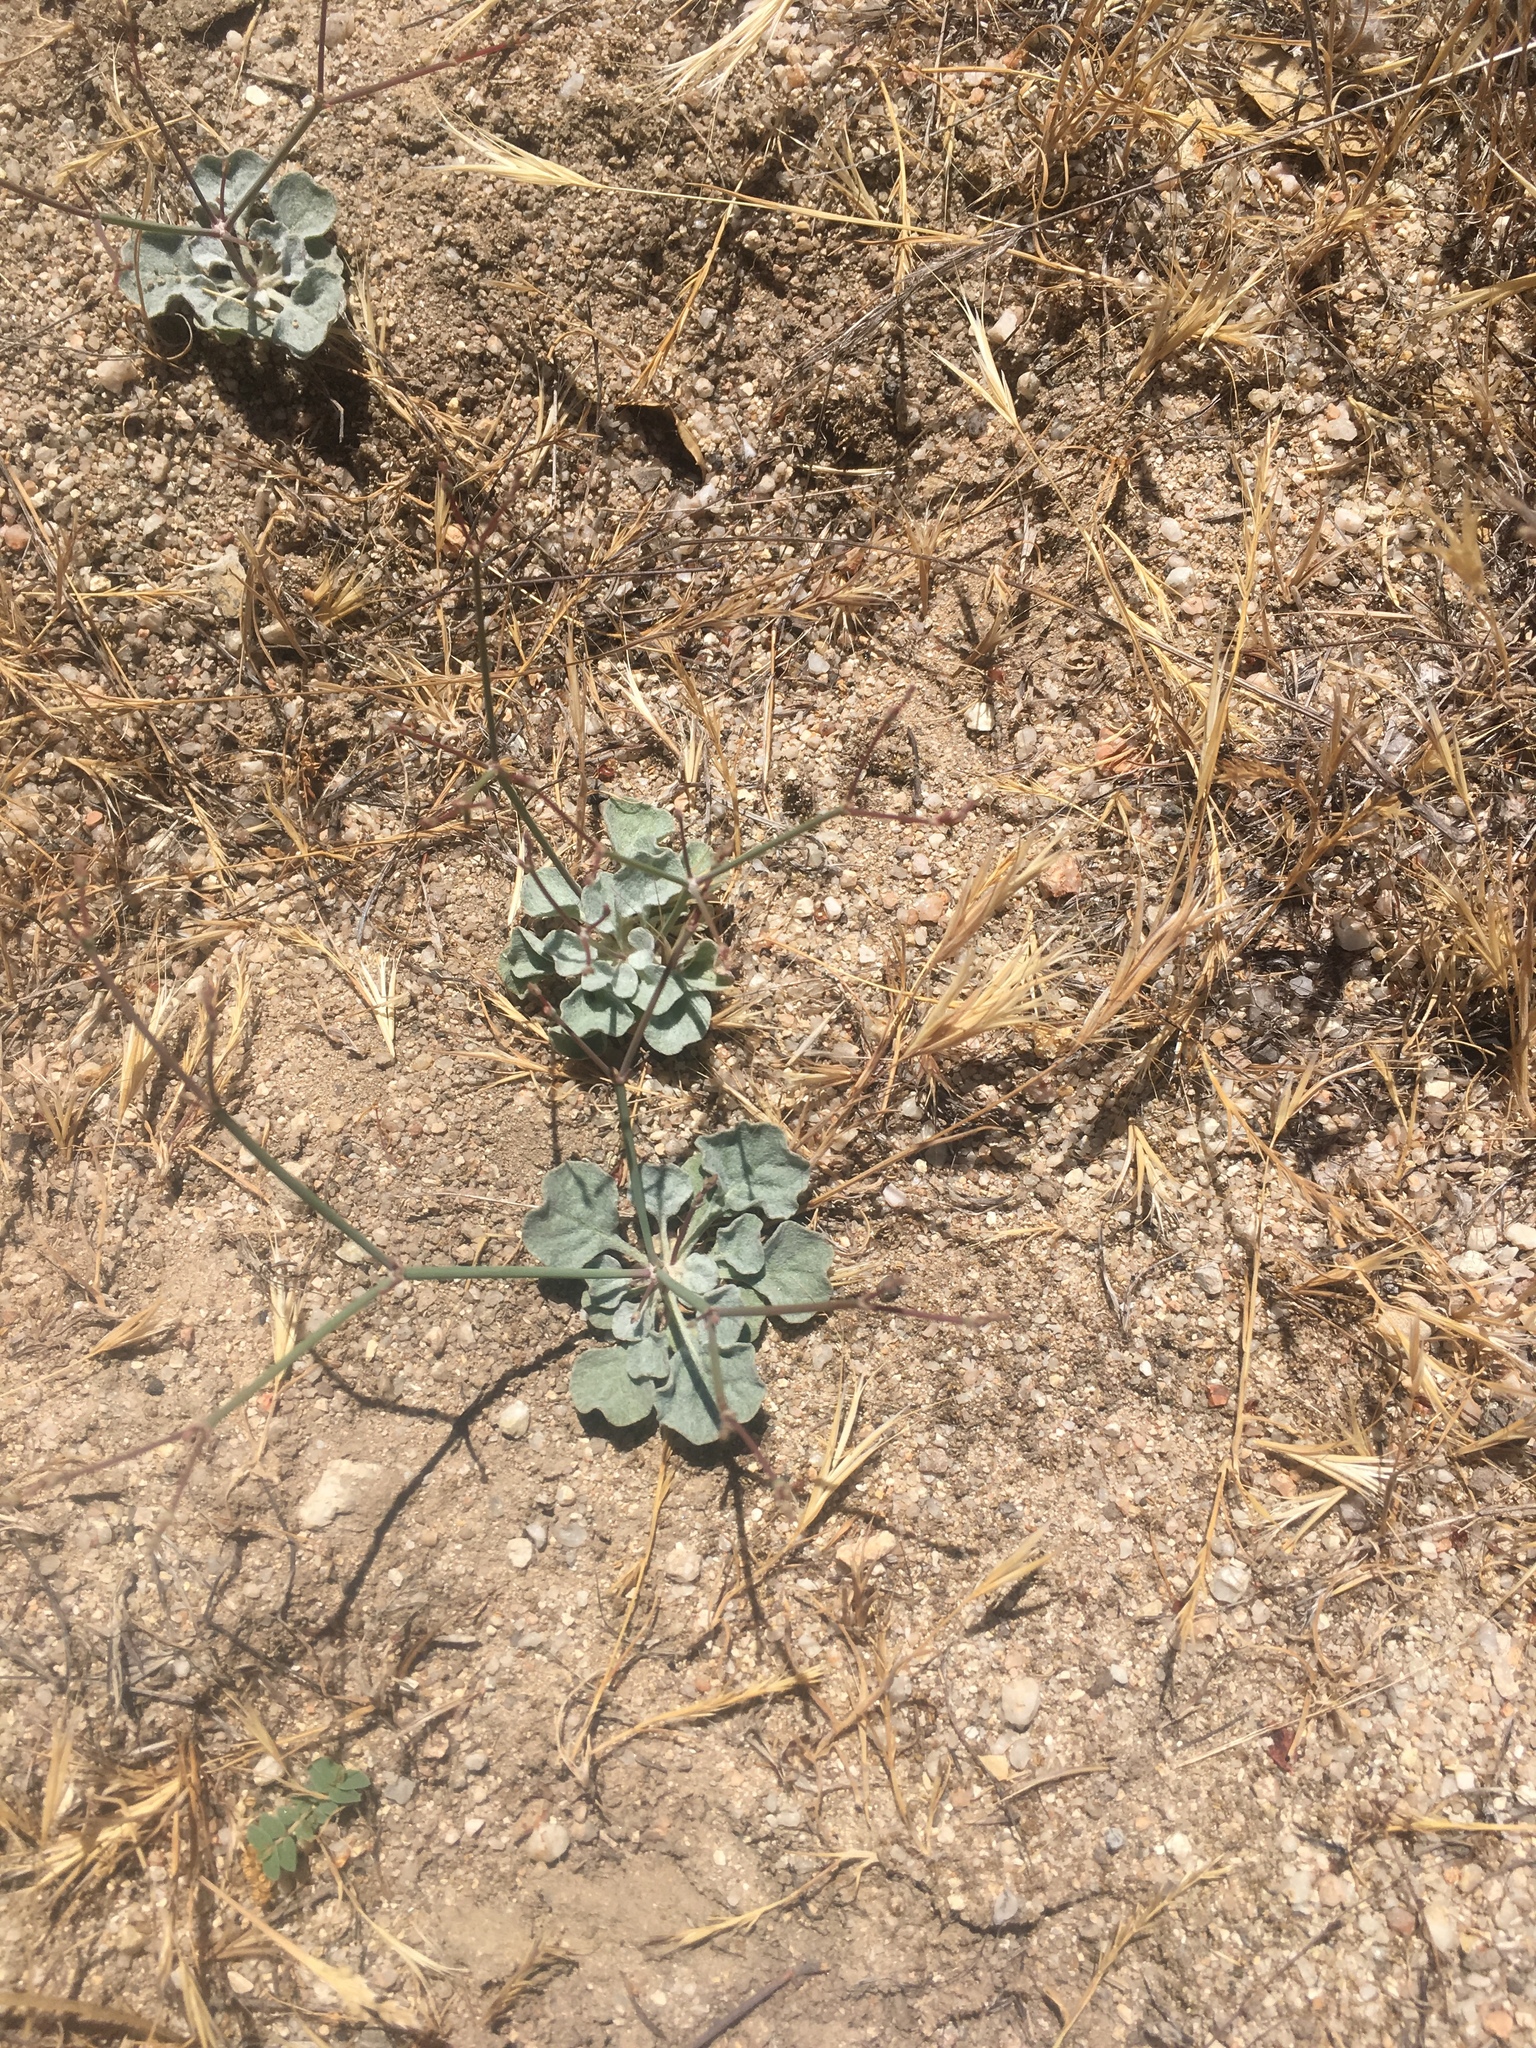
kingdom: Plantae
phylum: Tracheophyta
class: Magnoliopsida
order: Caryophyllales
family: Polygonaceae
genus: Eriogonum
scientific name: Eriogonum elegans
